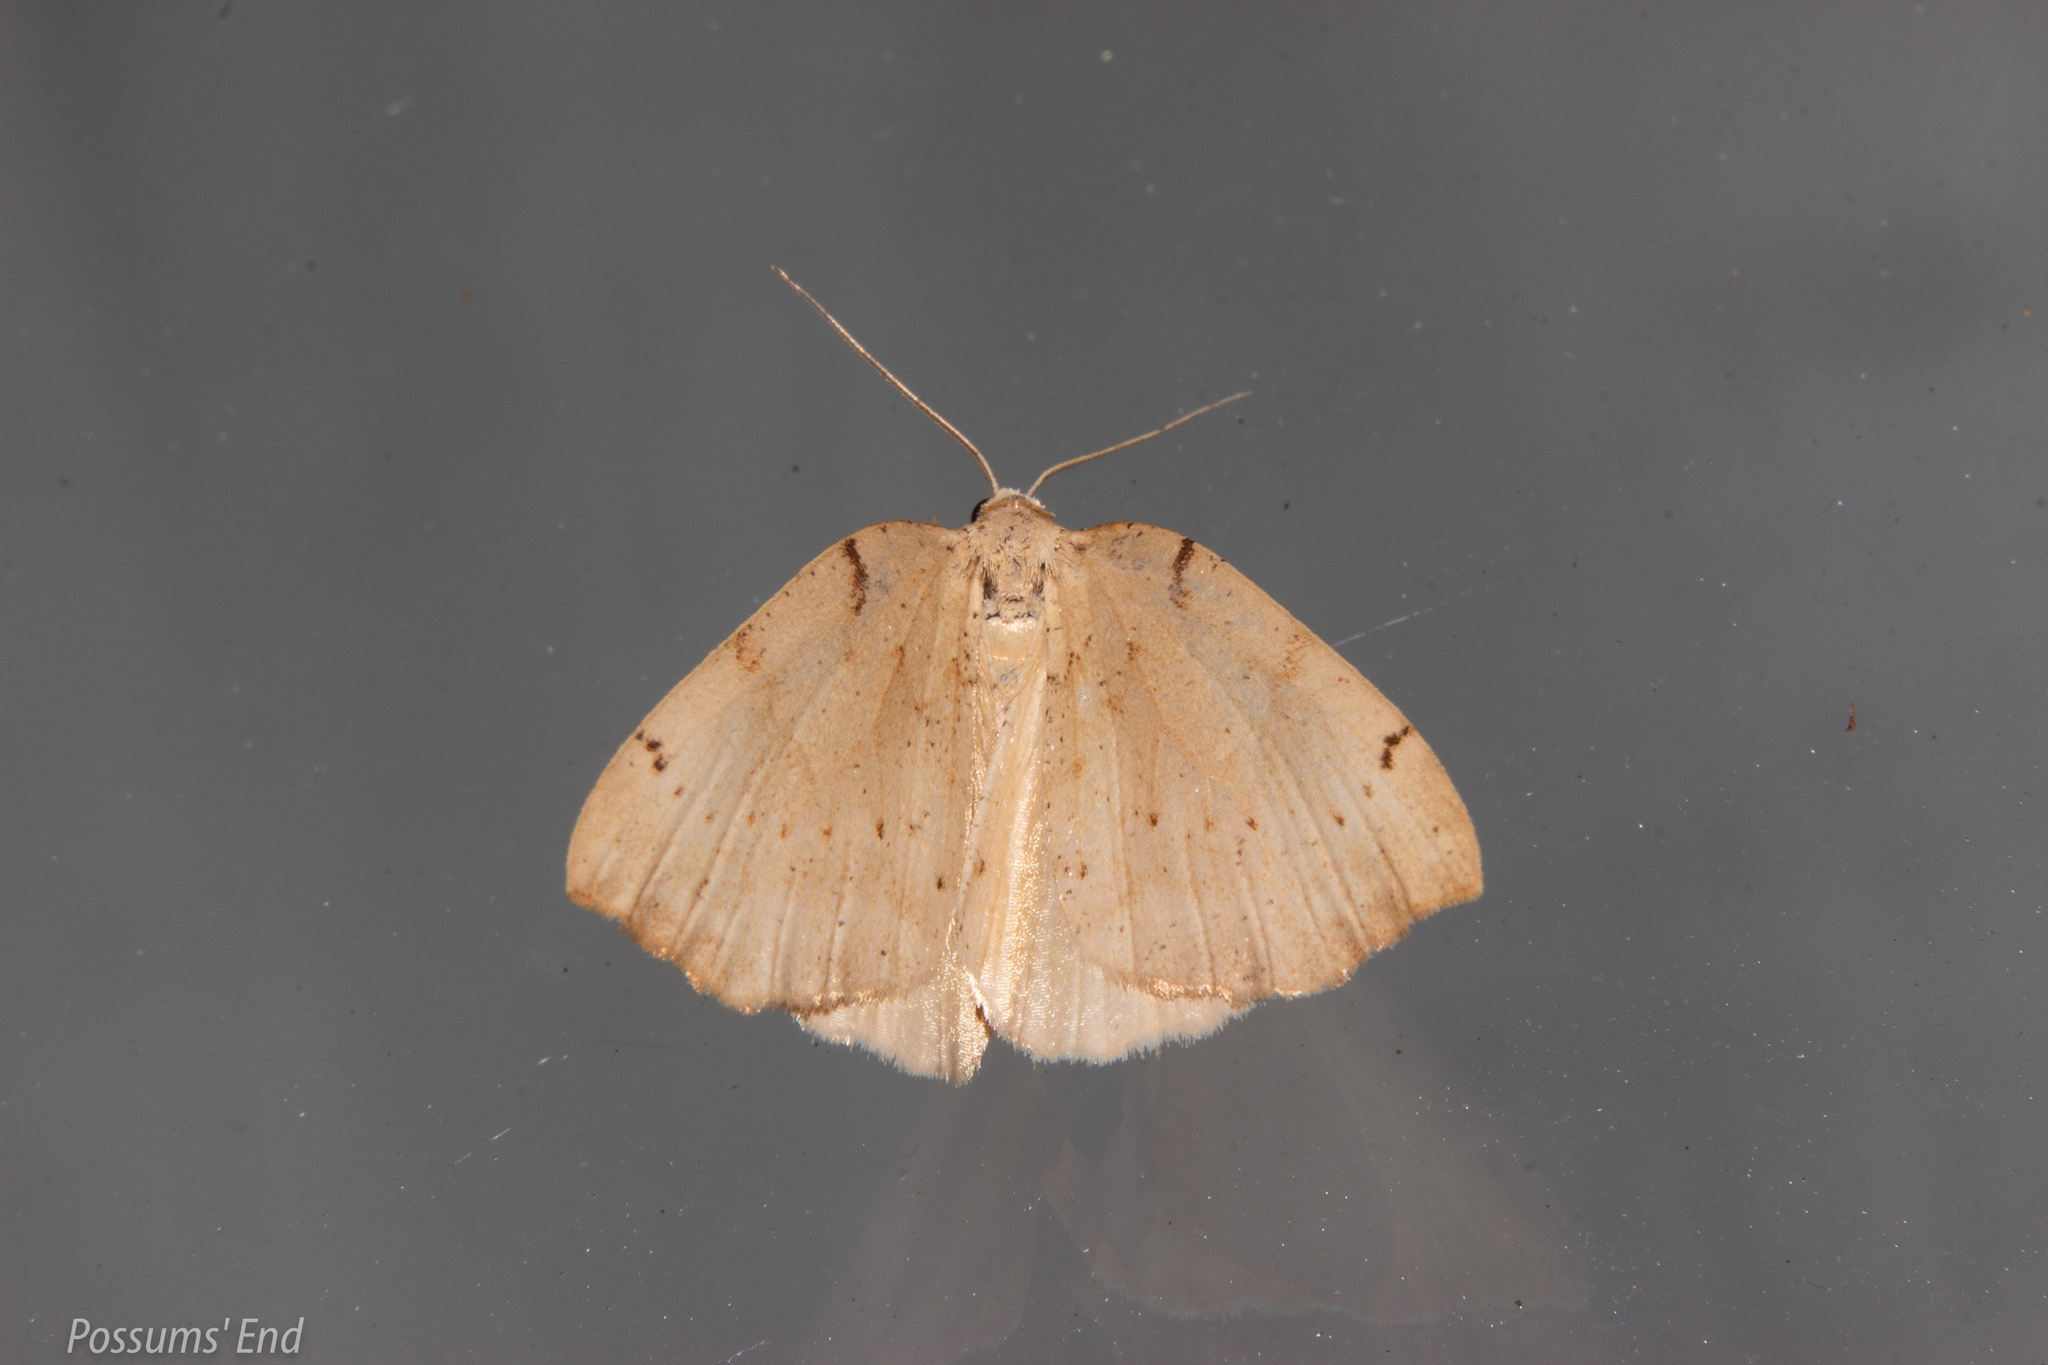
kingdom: Animalia
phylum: Arthropoda
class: Insecta
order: Lepidoptera
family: Geometridae
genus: Sestra
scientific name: Sestra humeraria
